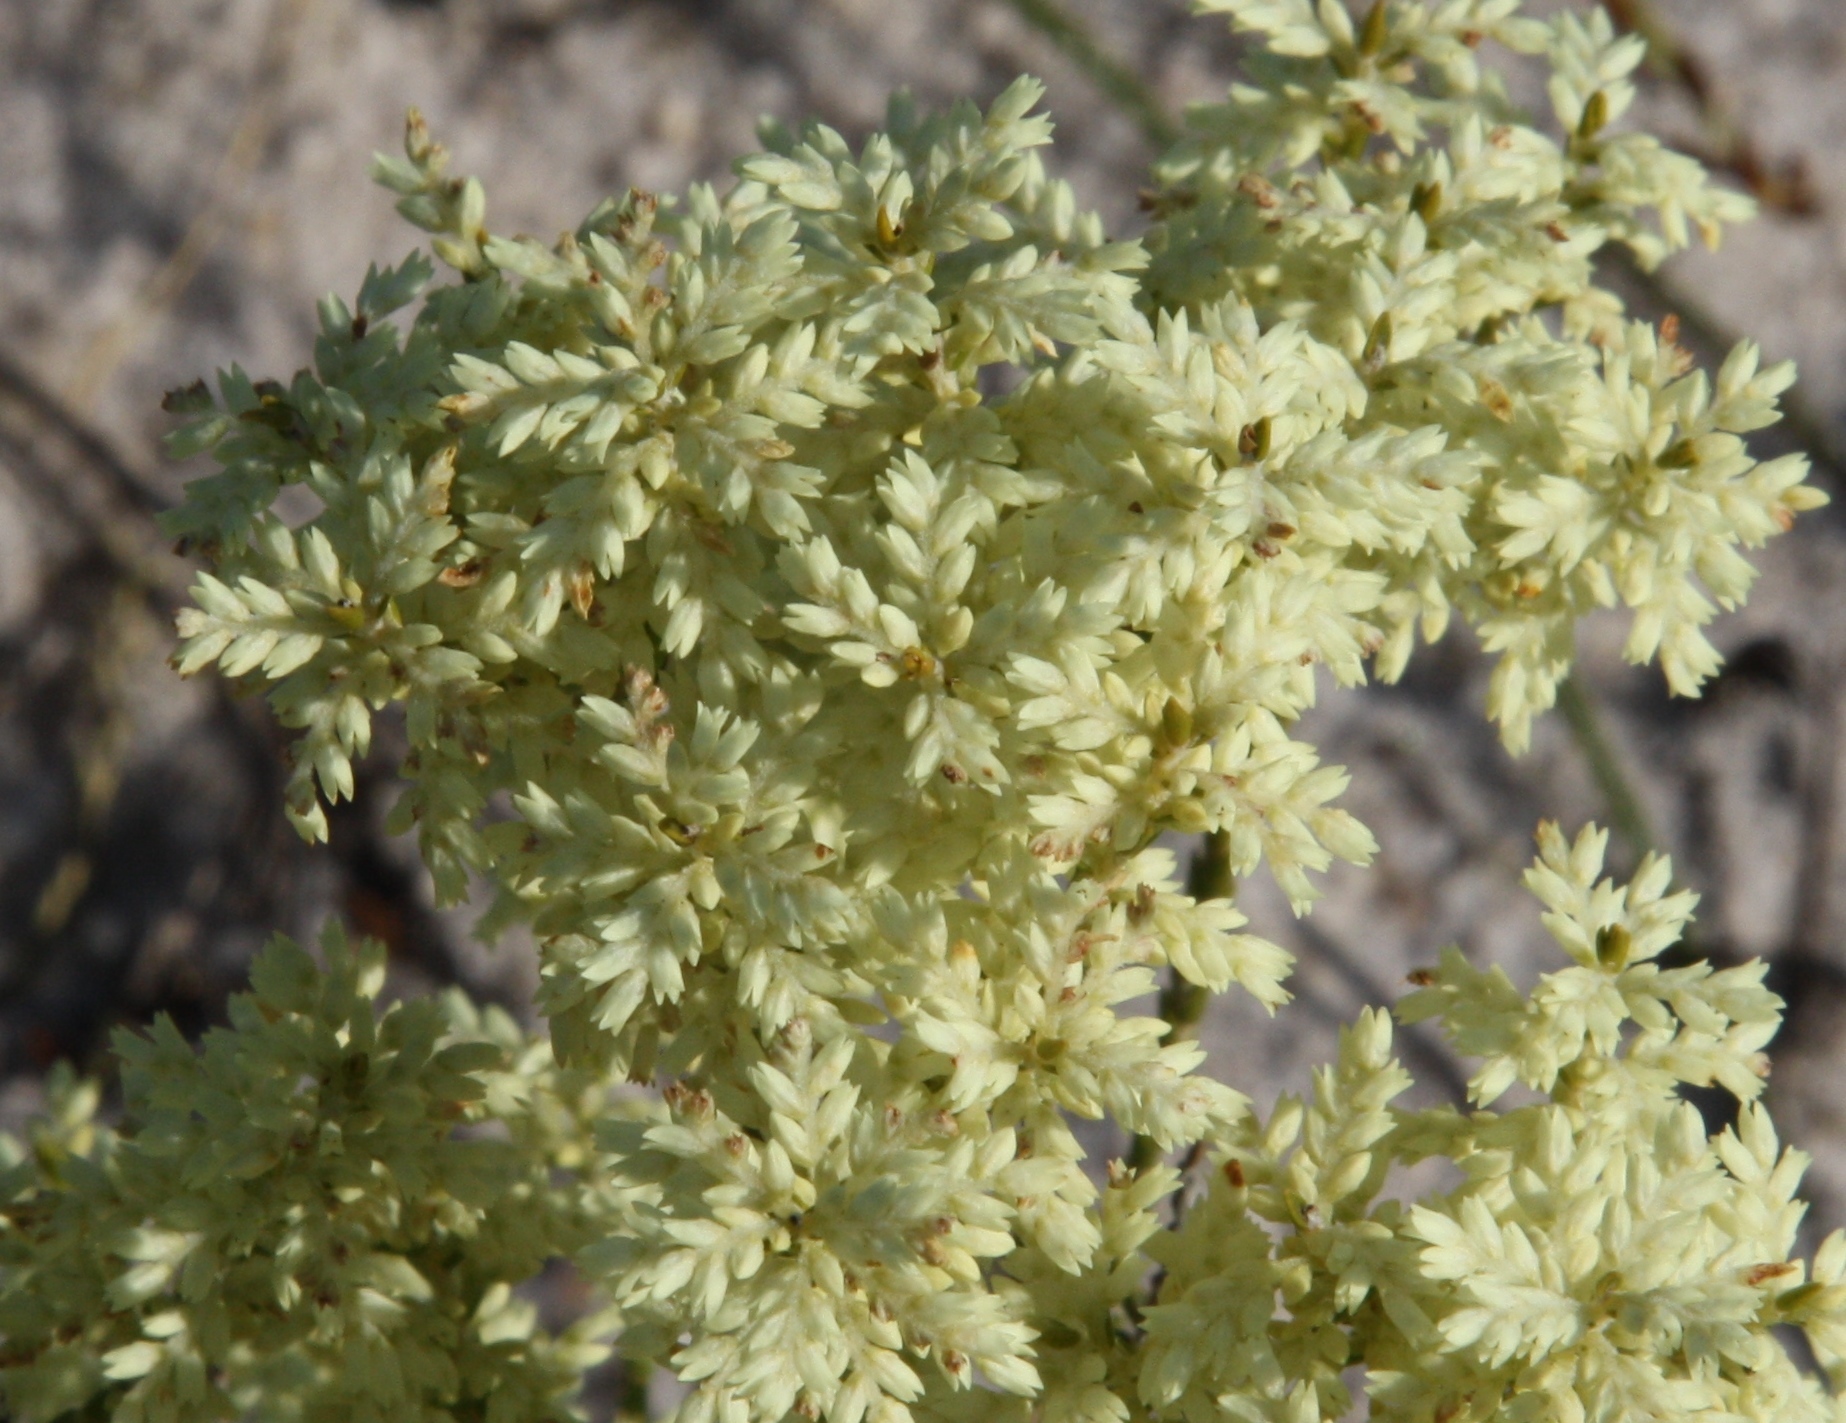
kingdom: Plantae
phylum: Tracheophyta
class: Magnoliopsida
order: Ericales
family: Ericaceae
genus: Oligarrhena
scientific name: Oligarrhena micrantha
